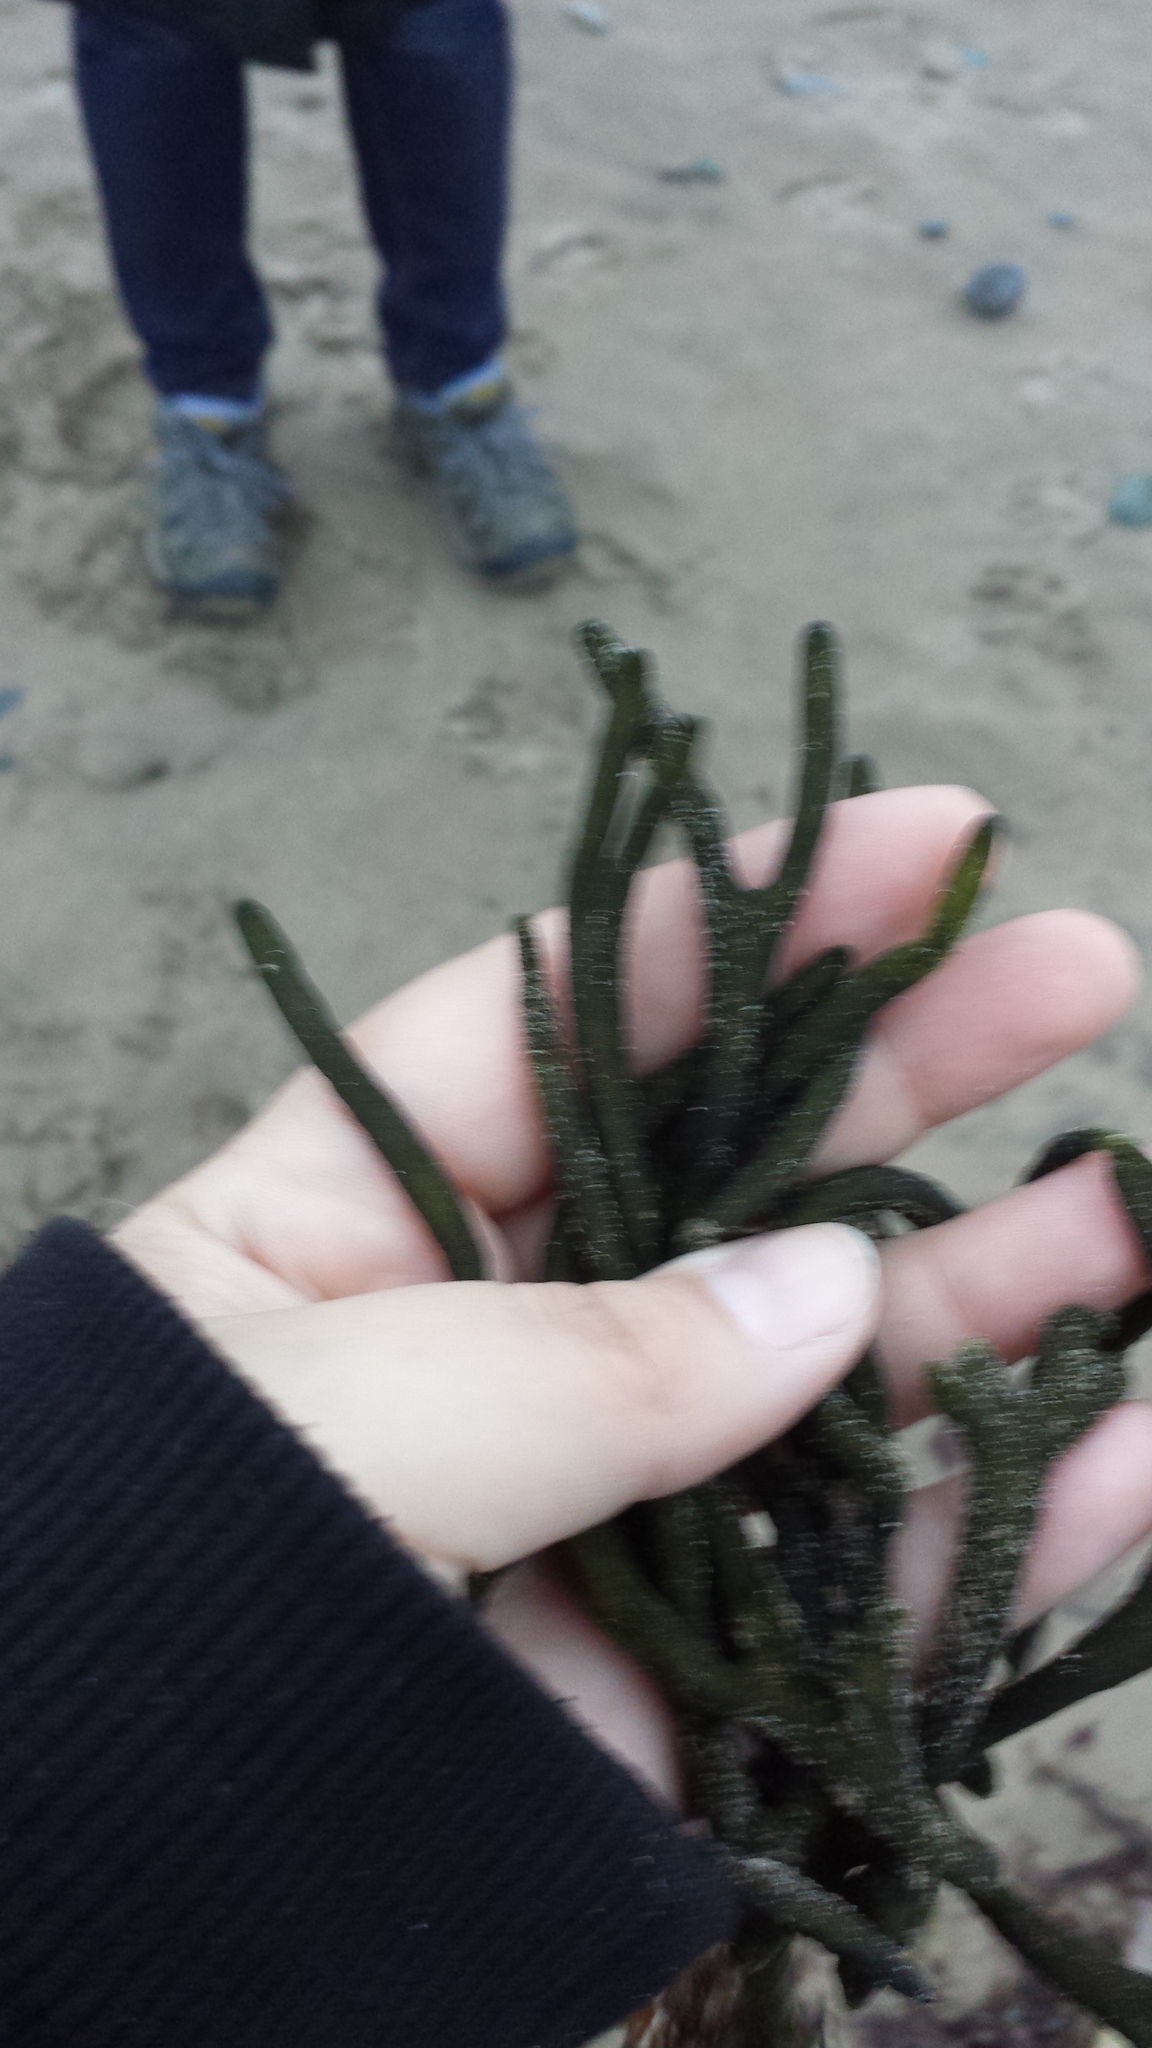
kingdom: Plantae
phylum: Chlorophyta
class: Ulvophyceae
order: Bryopsidales
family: Codiaceae
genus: Codium
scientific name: Codium fragile
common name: Dead man's fingers
